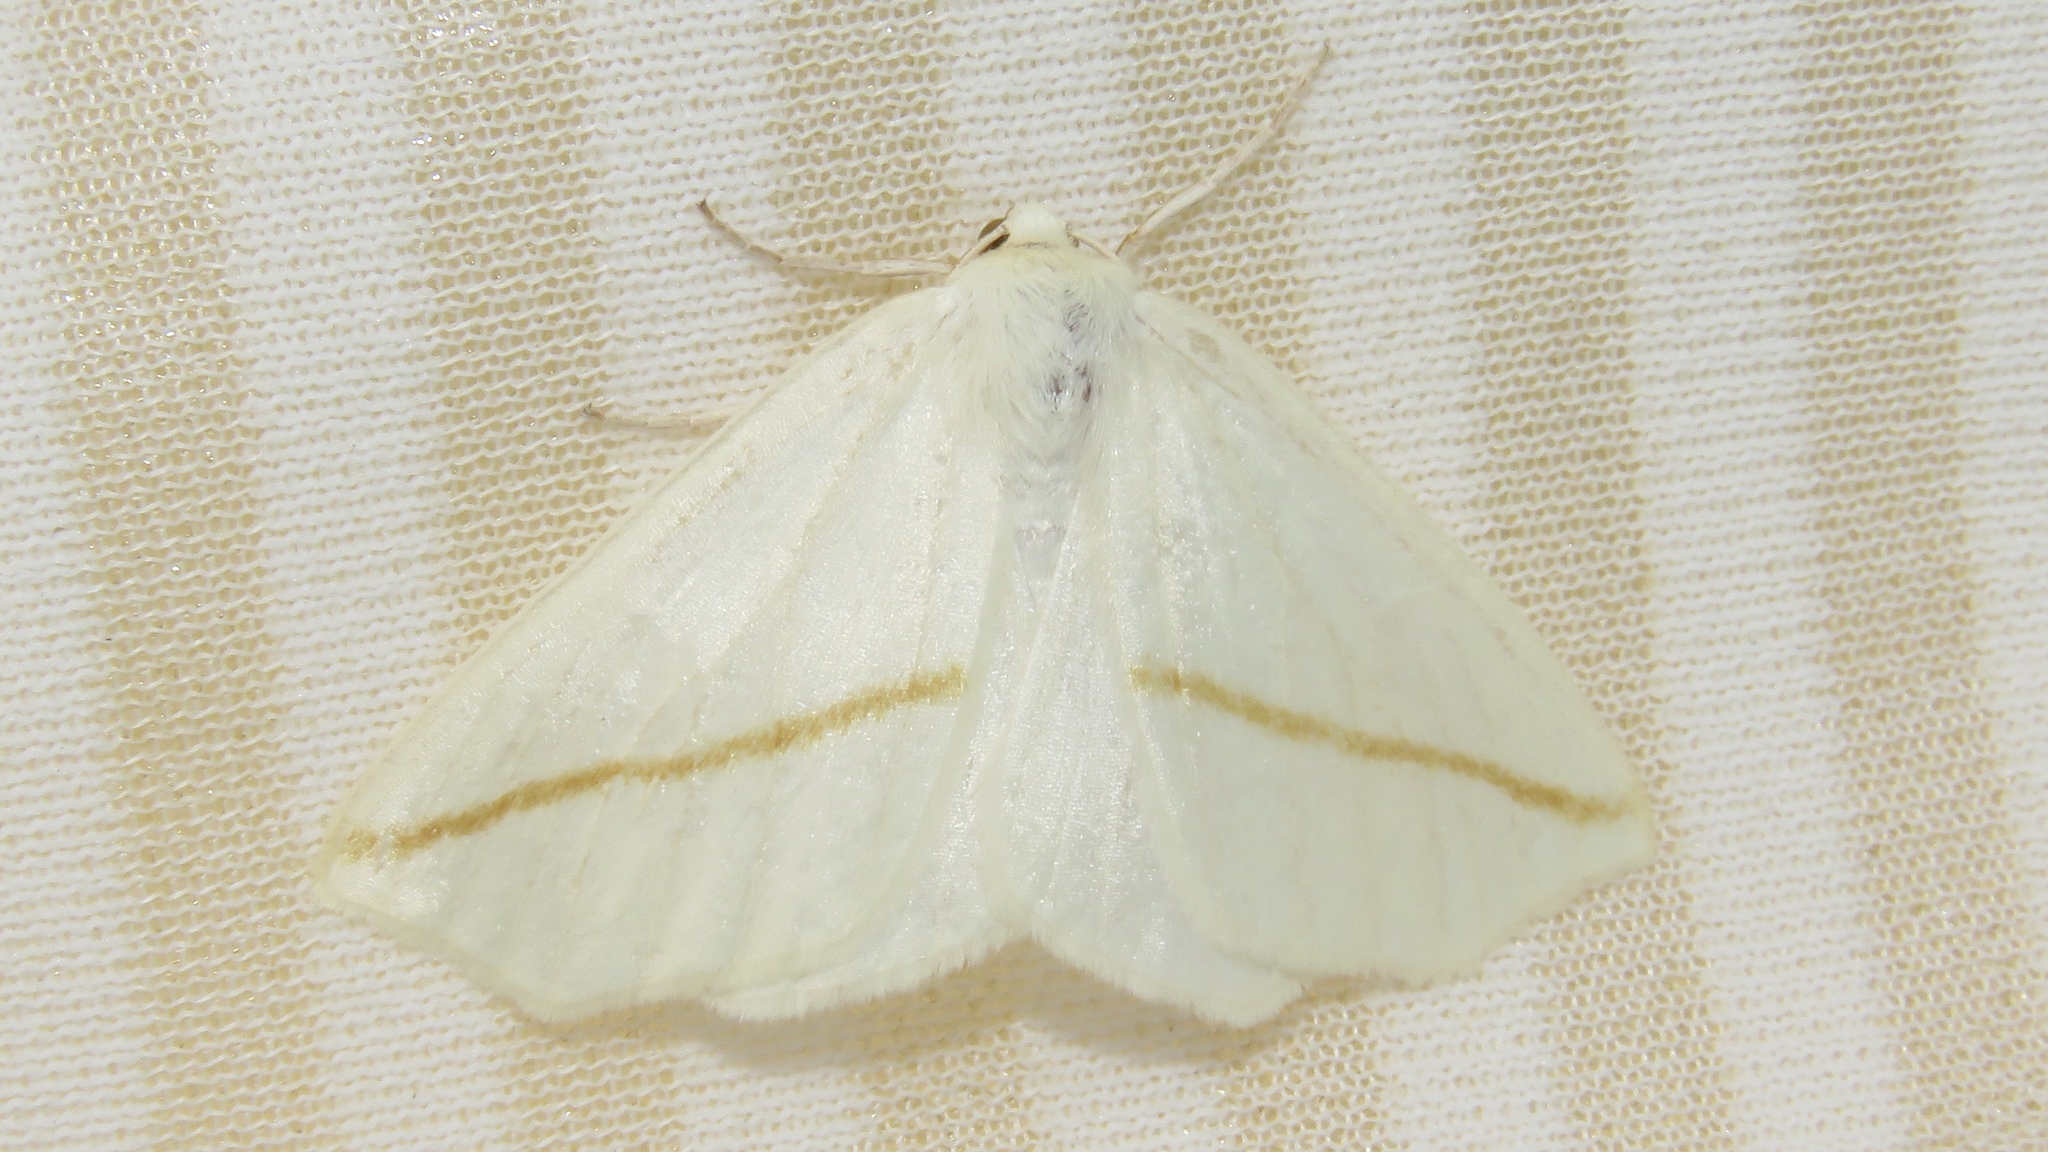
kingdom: Animalia
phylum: Arthropoda
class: Insecta
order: Lepidoptera
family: Geometridae
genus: Tetracis
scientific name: Tetracis cachexiata
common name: White slant-line
